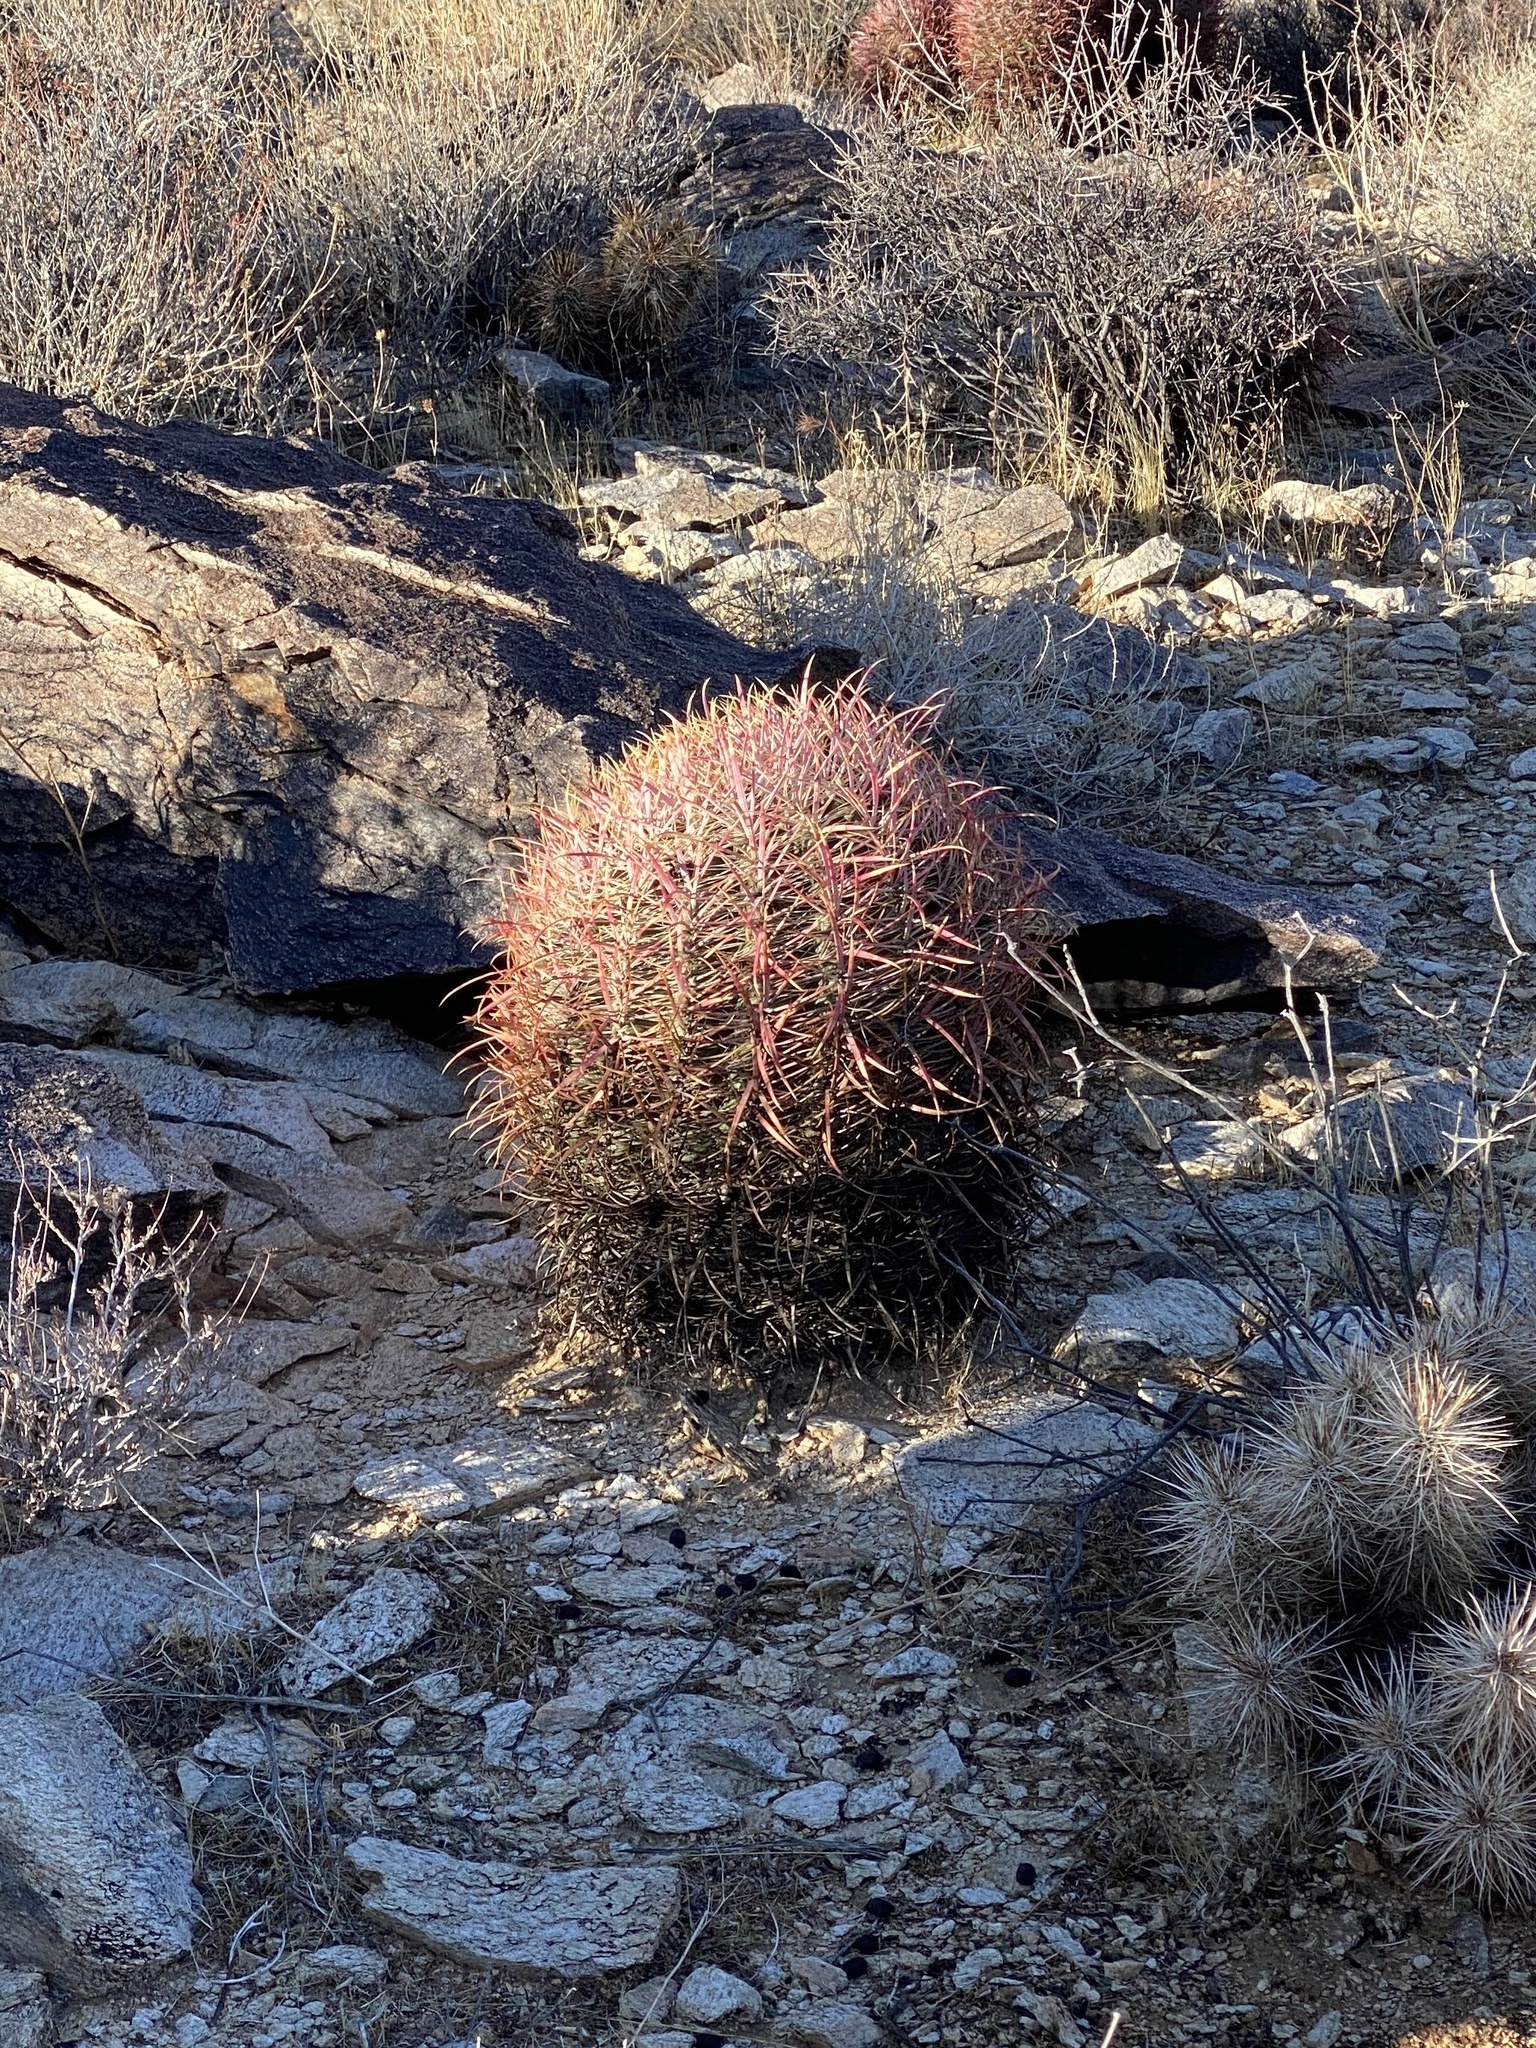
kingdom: Plantae
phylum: Tracheophyta
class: Magnoliopsida
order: Caryophyllales
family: Cactaceae
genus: Ferocactus
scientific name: Ferocactus cylindraceus
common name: California barrel cactus
